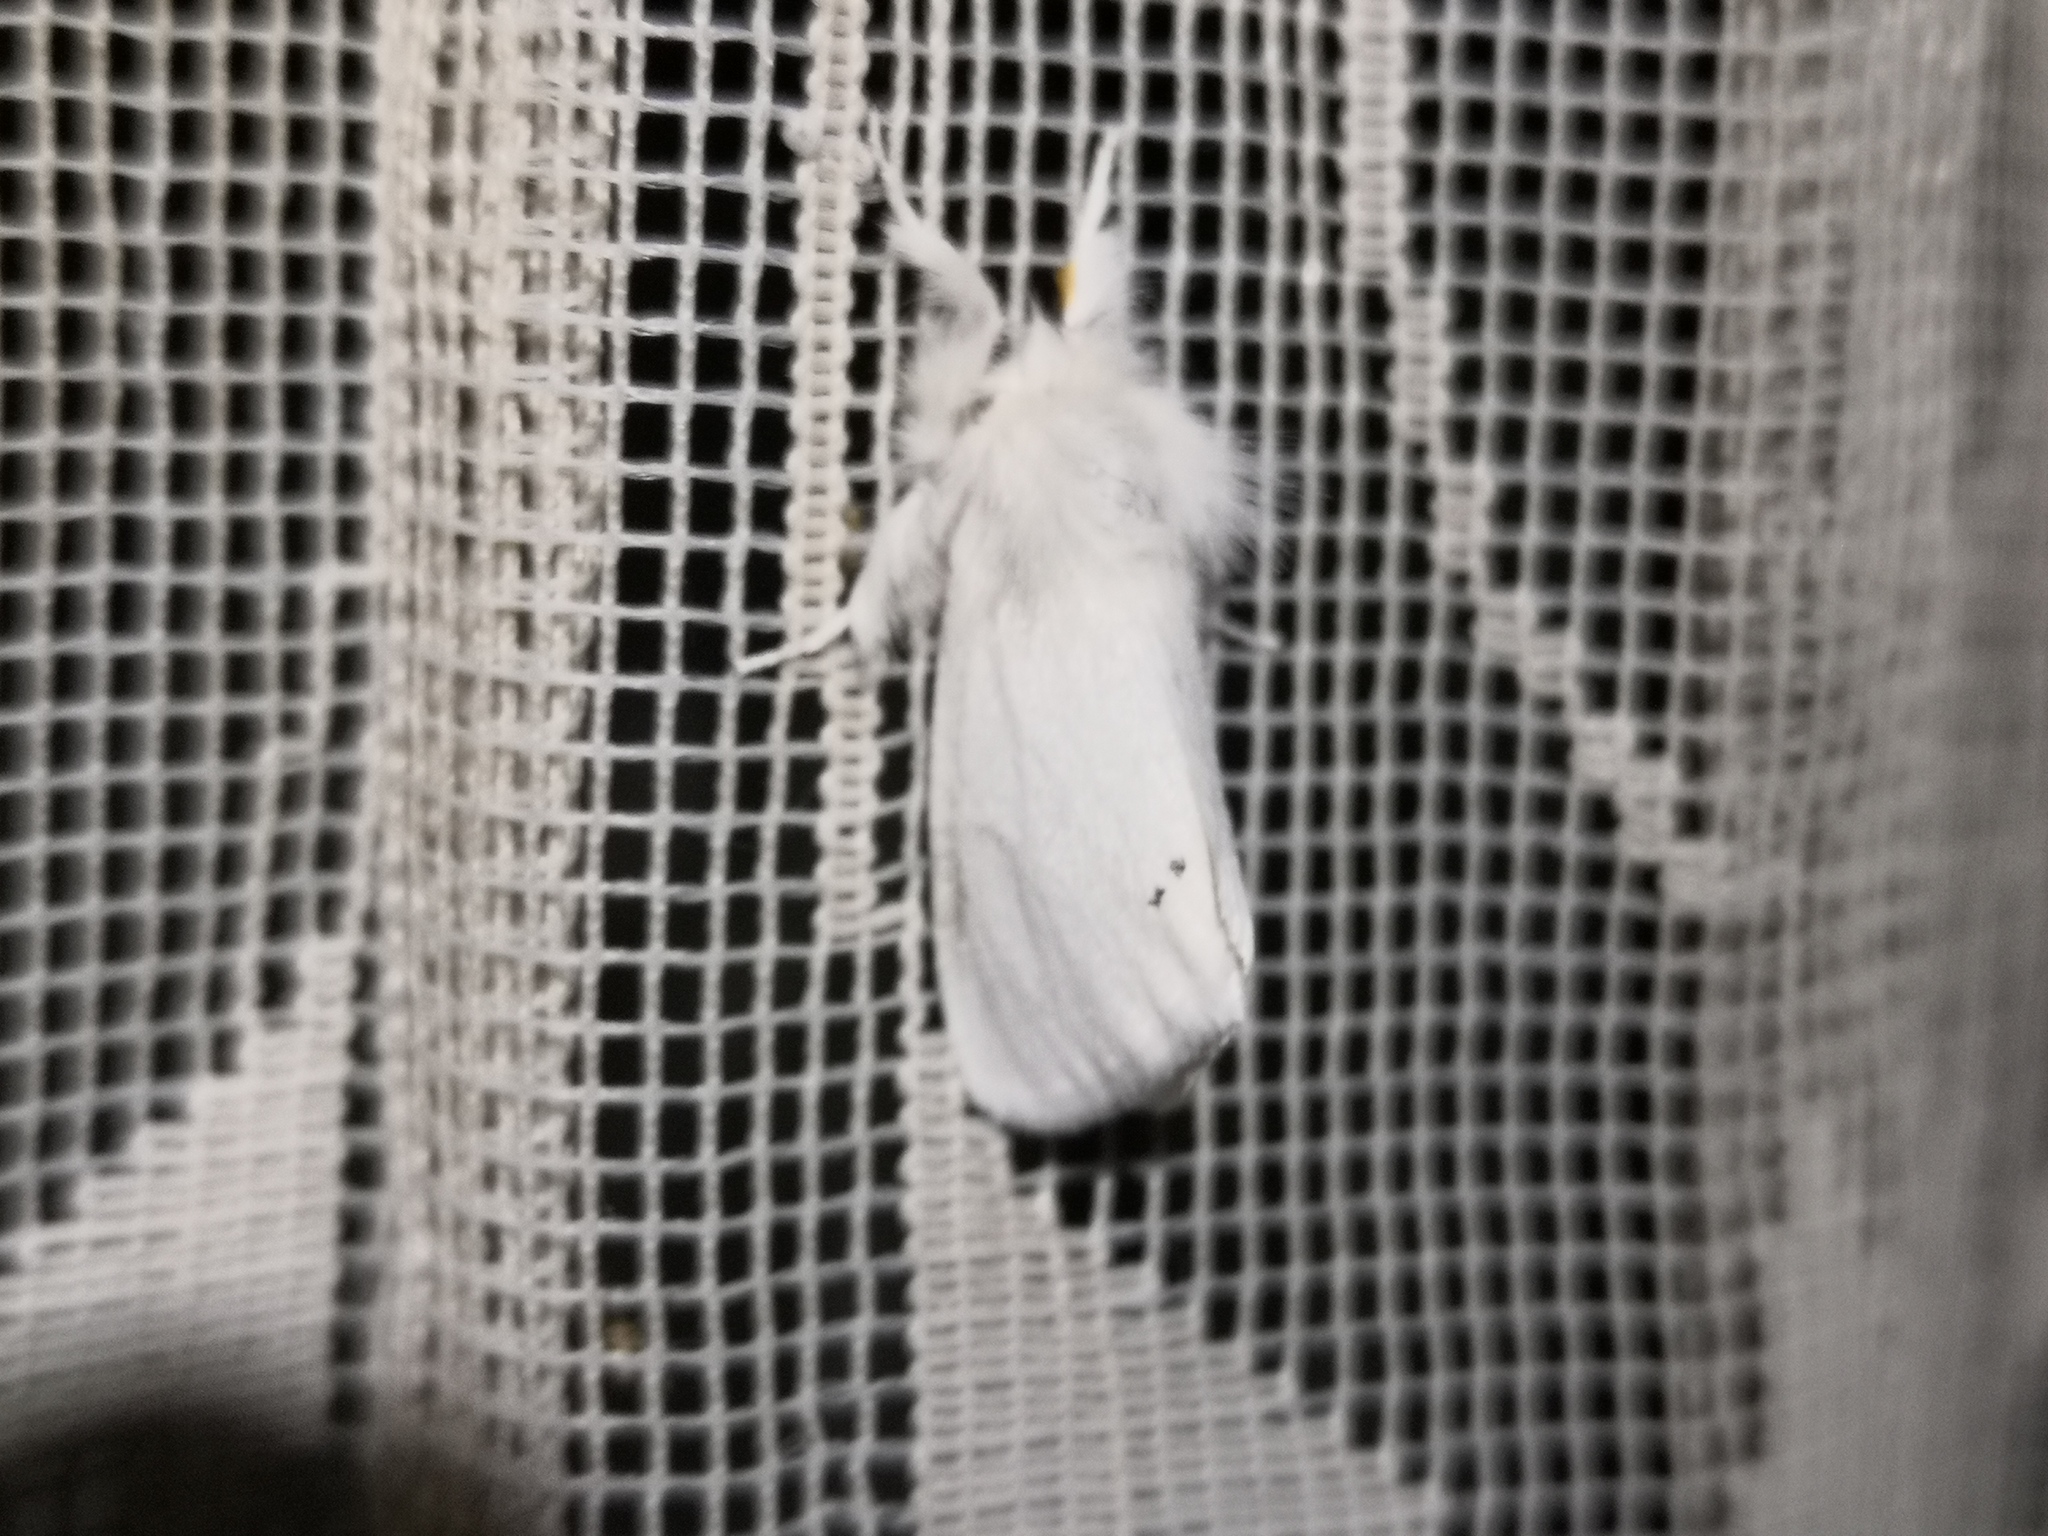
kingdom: Animalia
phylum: Arthropoda
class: Insecta
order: Lepidoptera
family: Erebidae
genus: Euproctis
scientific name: Euproctis chrysorrhoea
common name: Brown-tail
